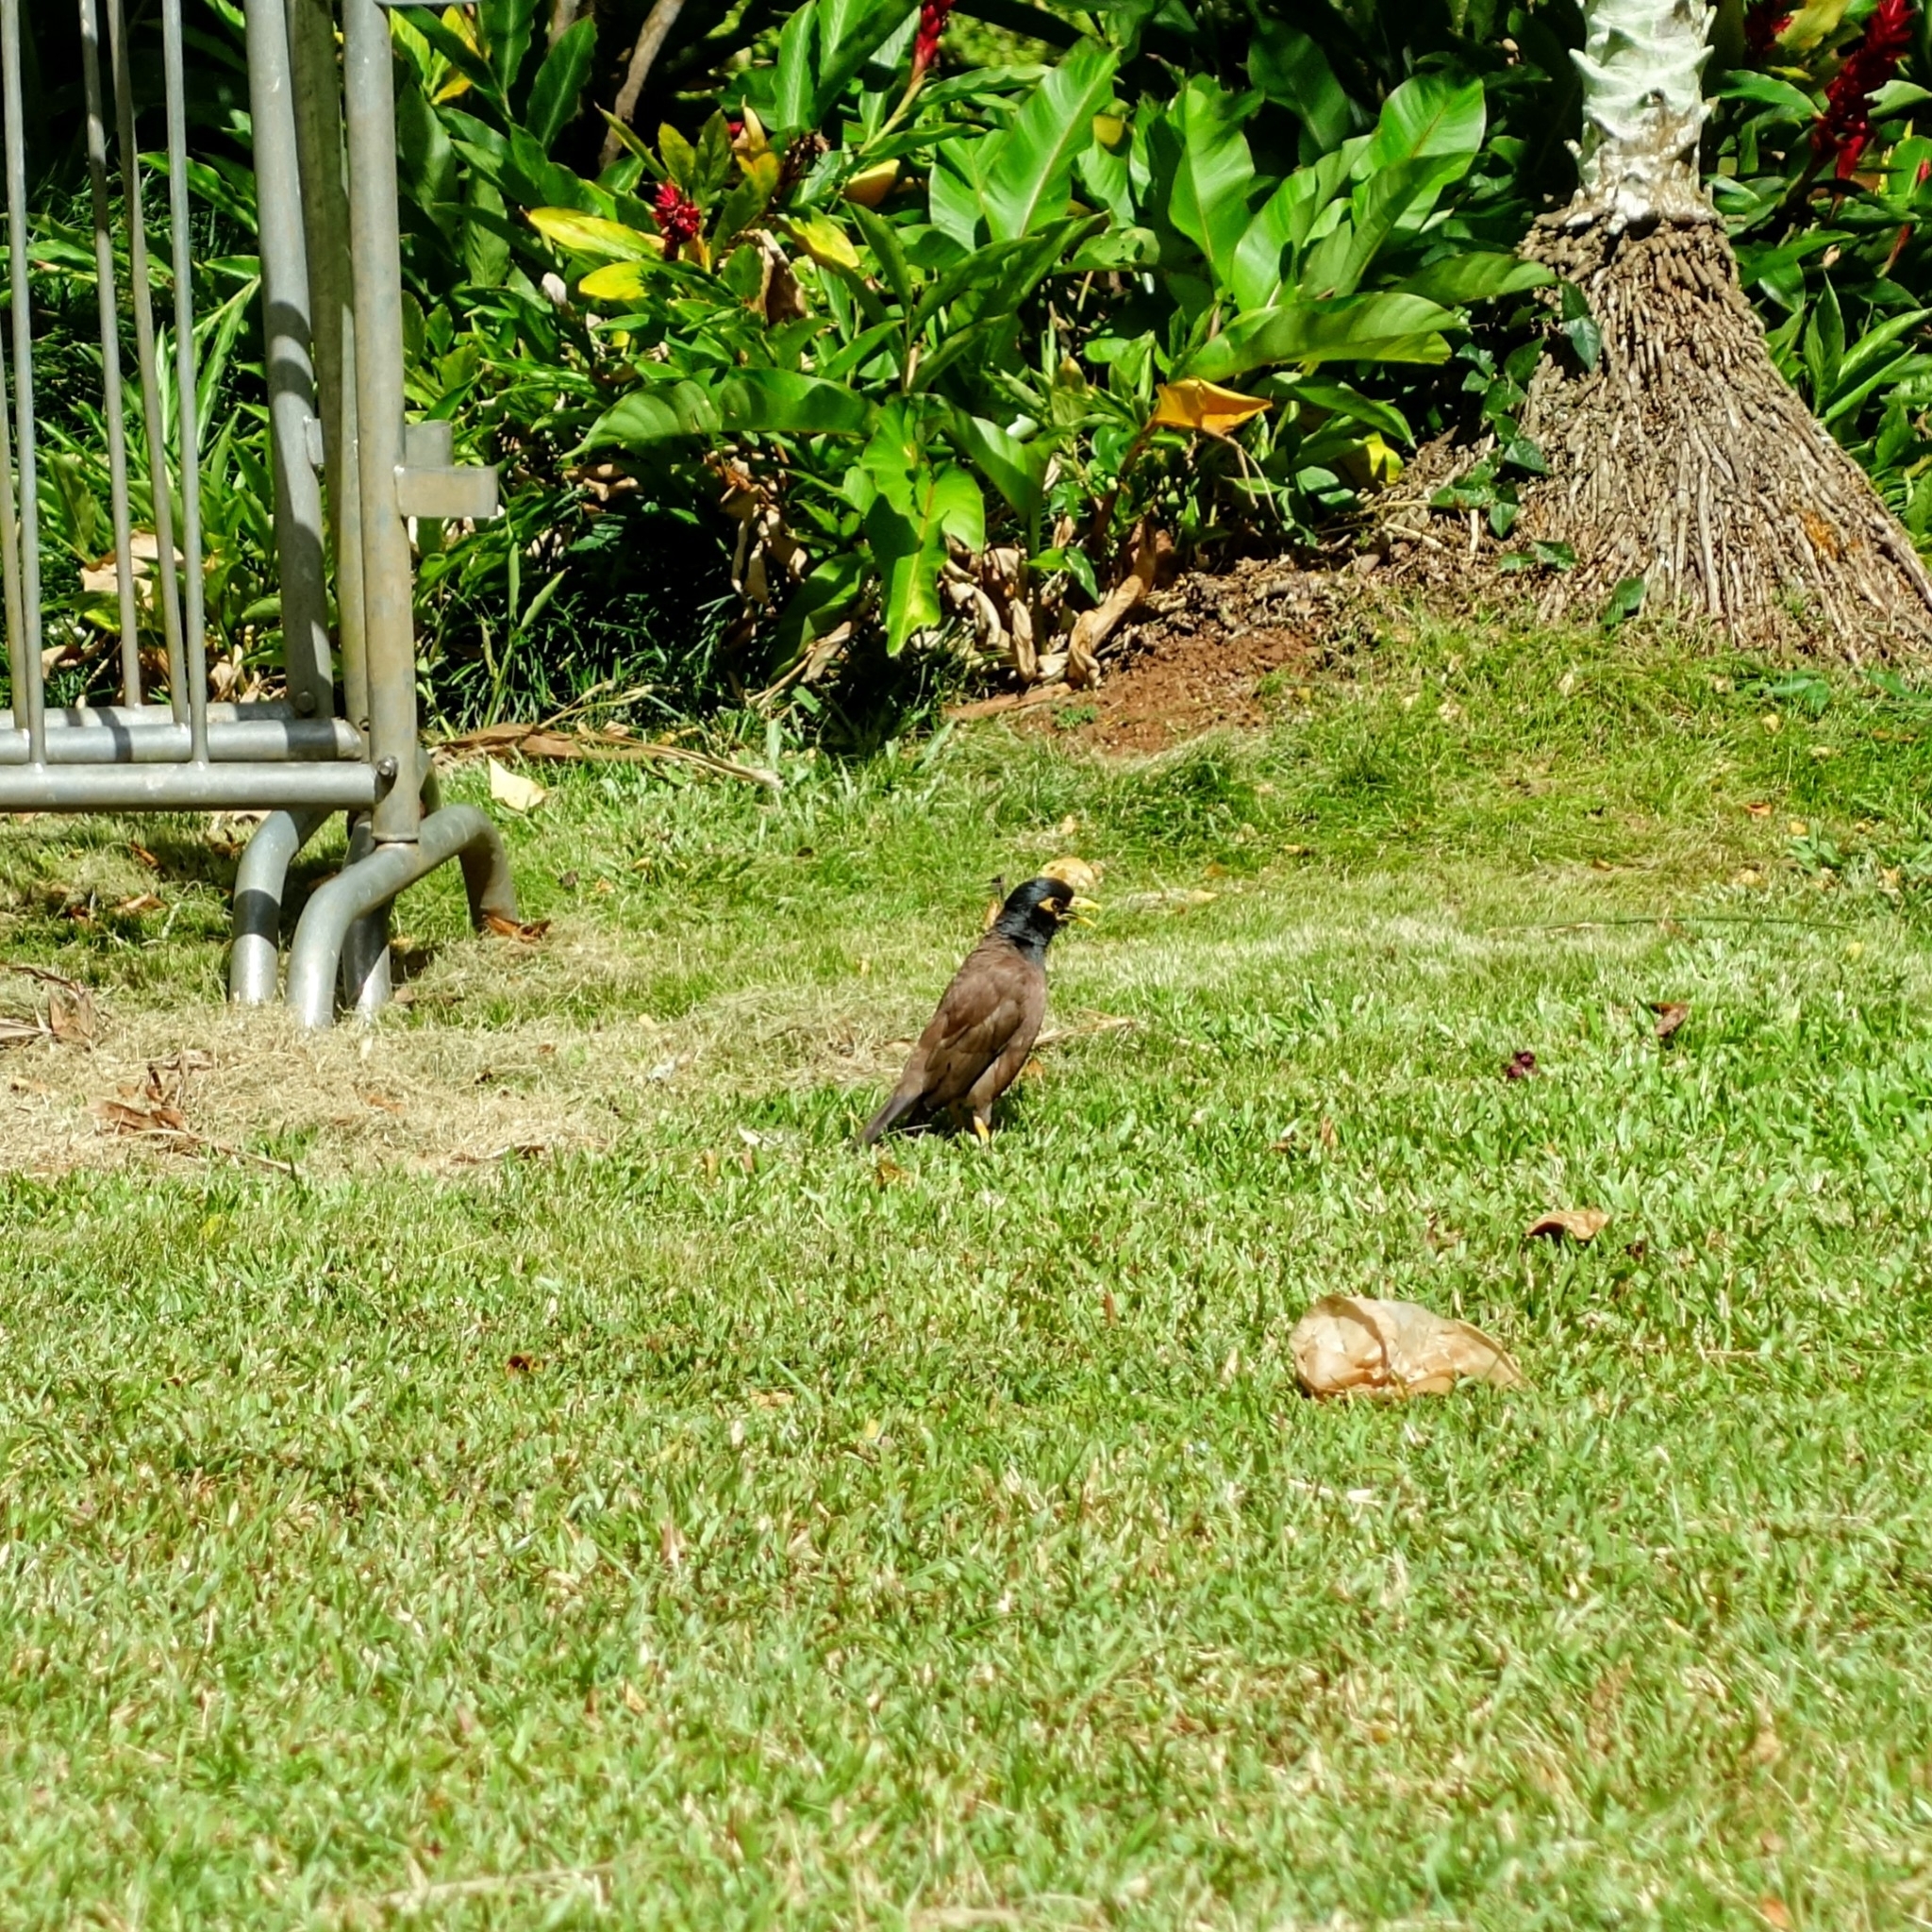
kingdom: Animalia
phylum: Chordata
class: Aves
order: Passeriformes
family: Sturnidae
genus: Acridotheres
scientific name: Acridotheres tristis
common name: Common myna
